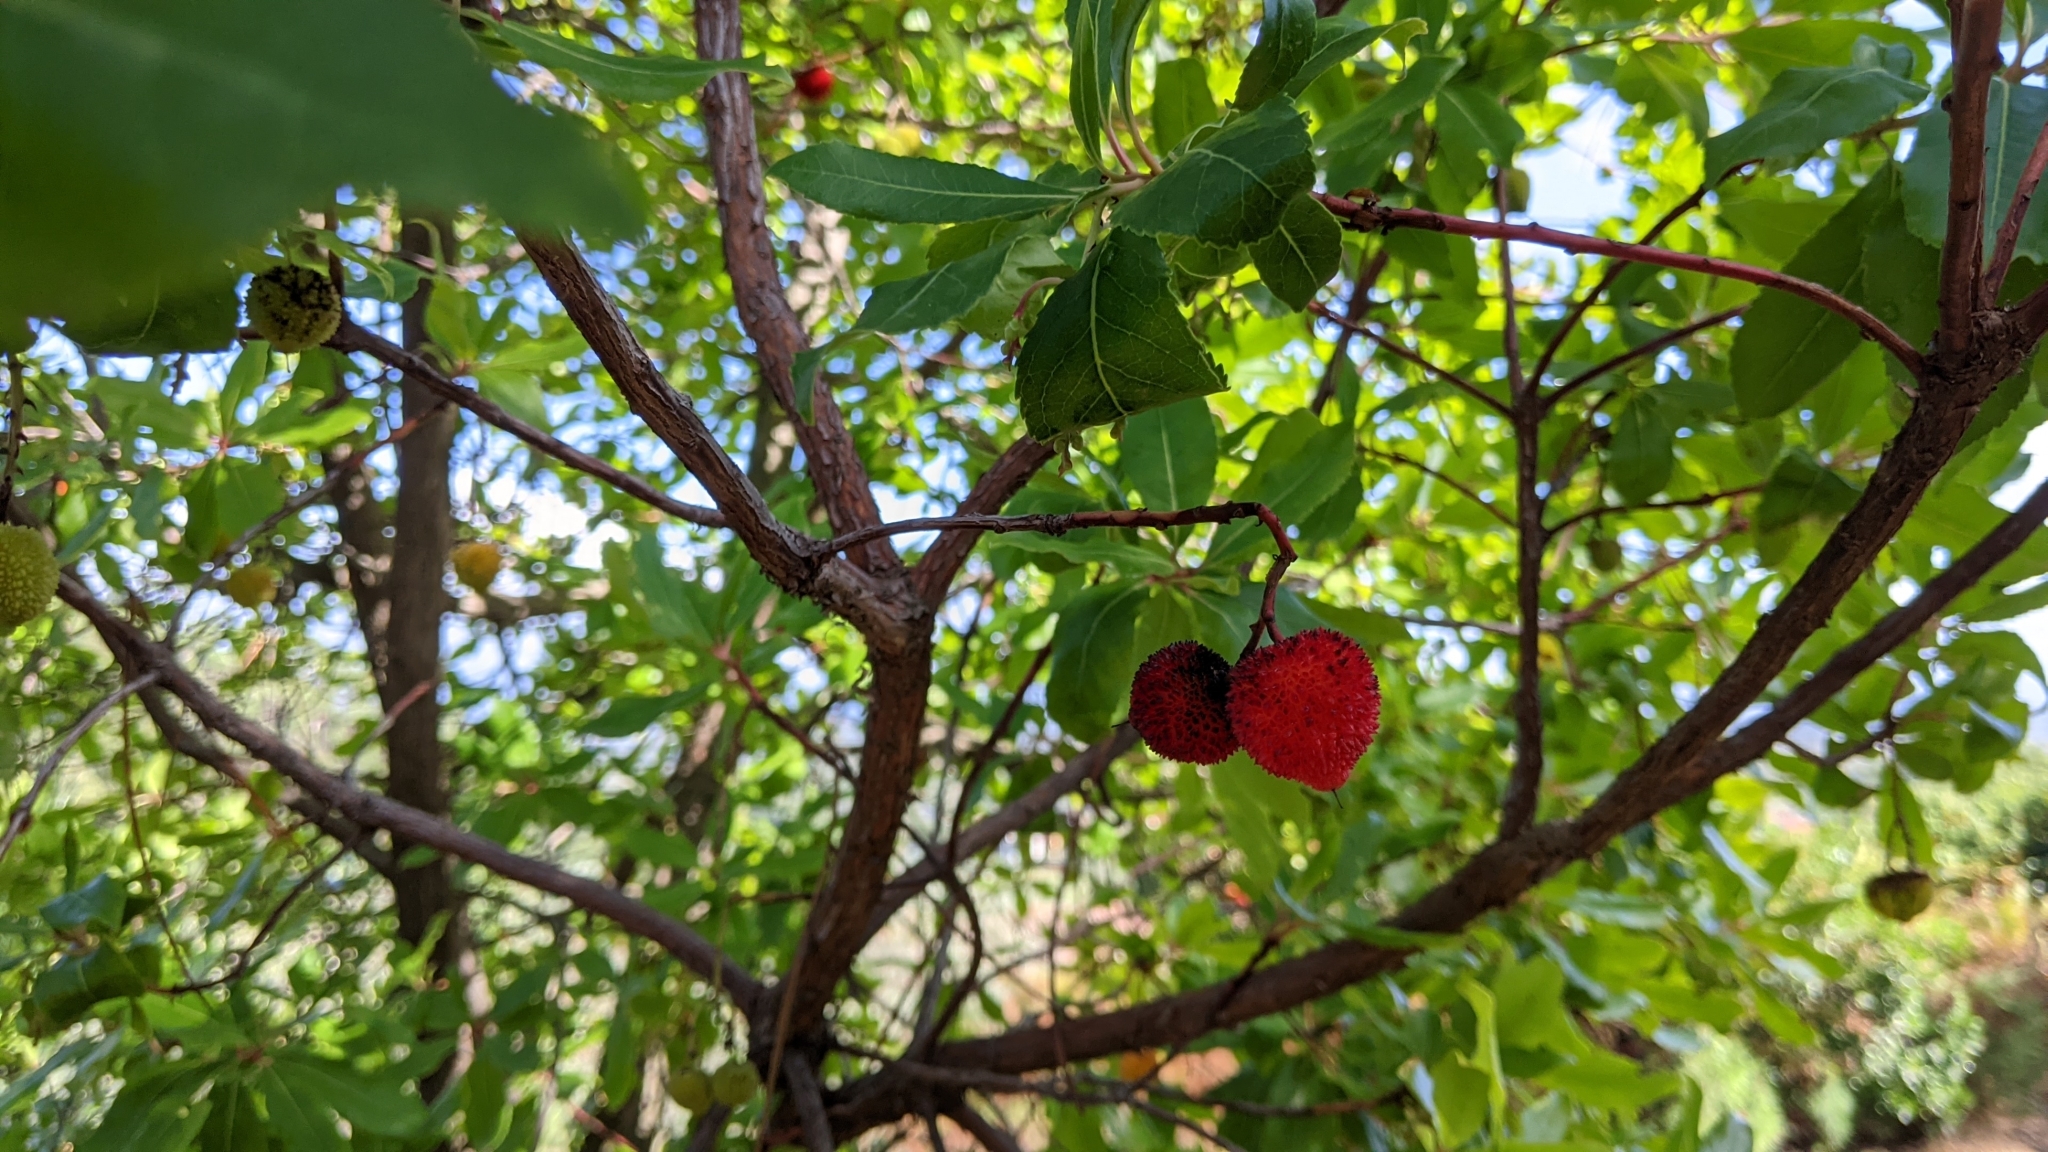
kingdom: Plantae
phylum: Tracheophyta
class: Magnoliopsida
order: Ericales
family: Ericaceae
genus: Arbutus
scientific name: Arbutus unedo
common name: Strawberry-tree
